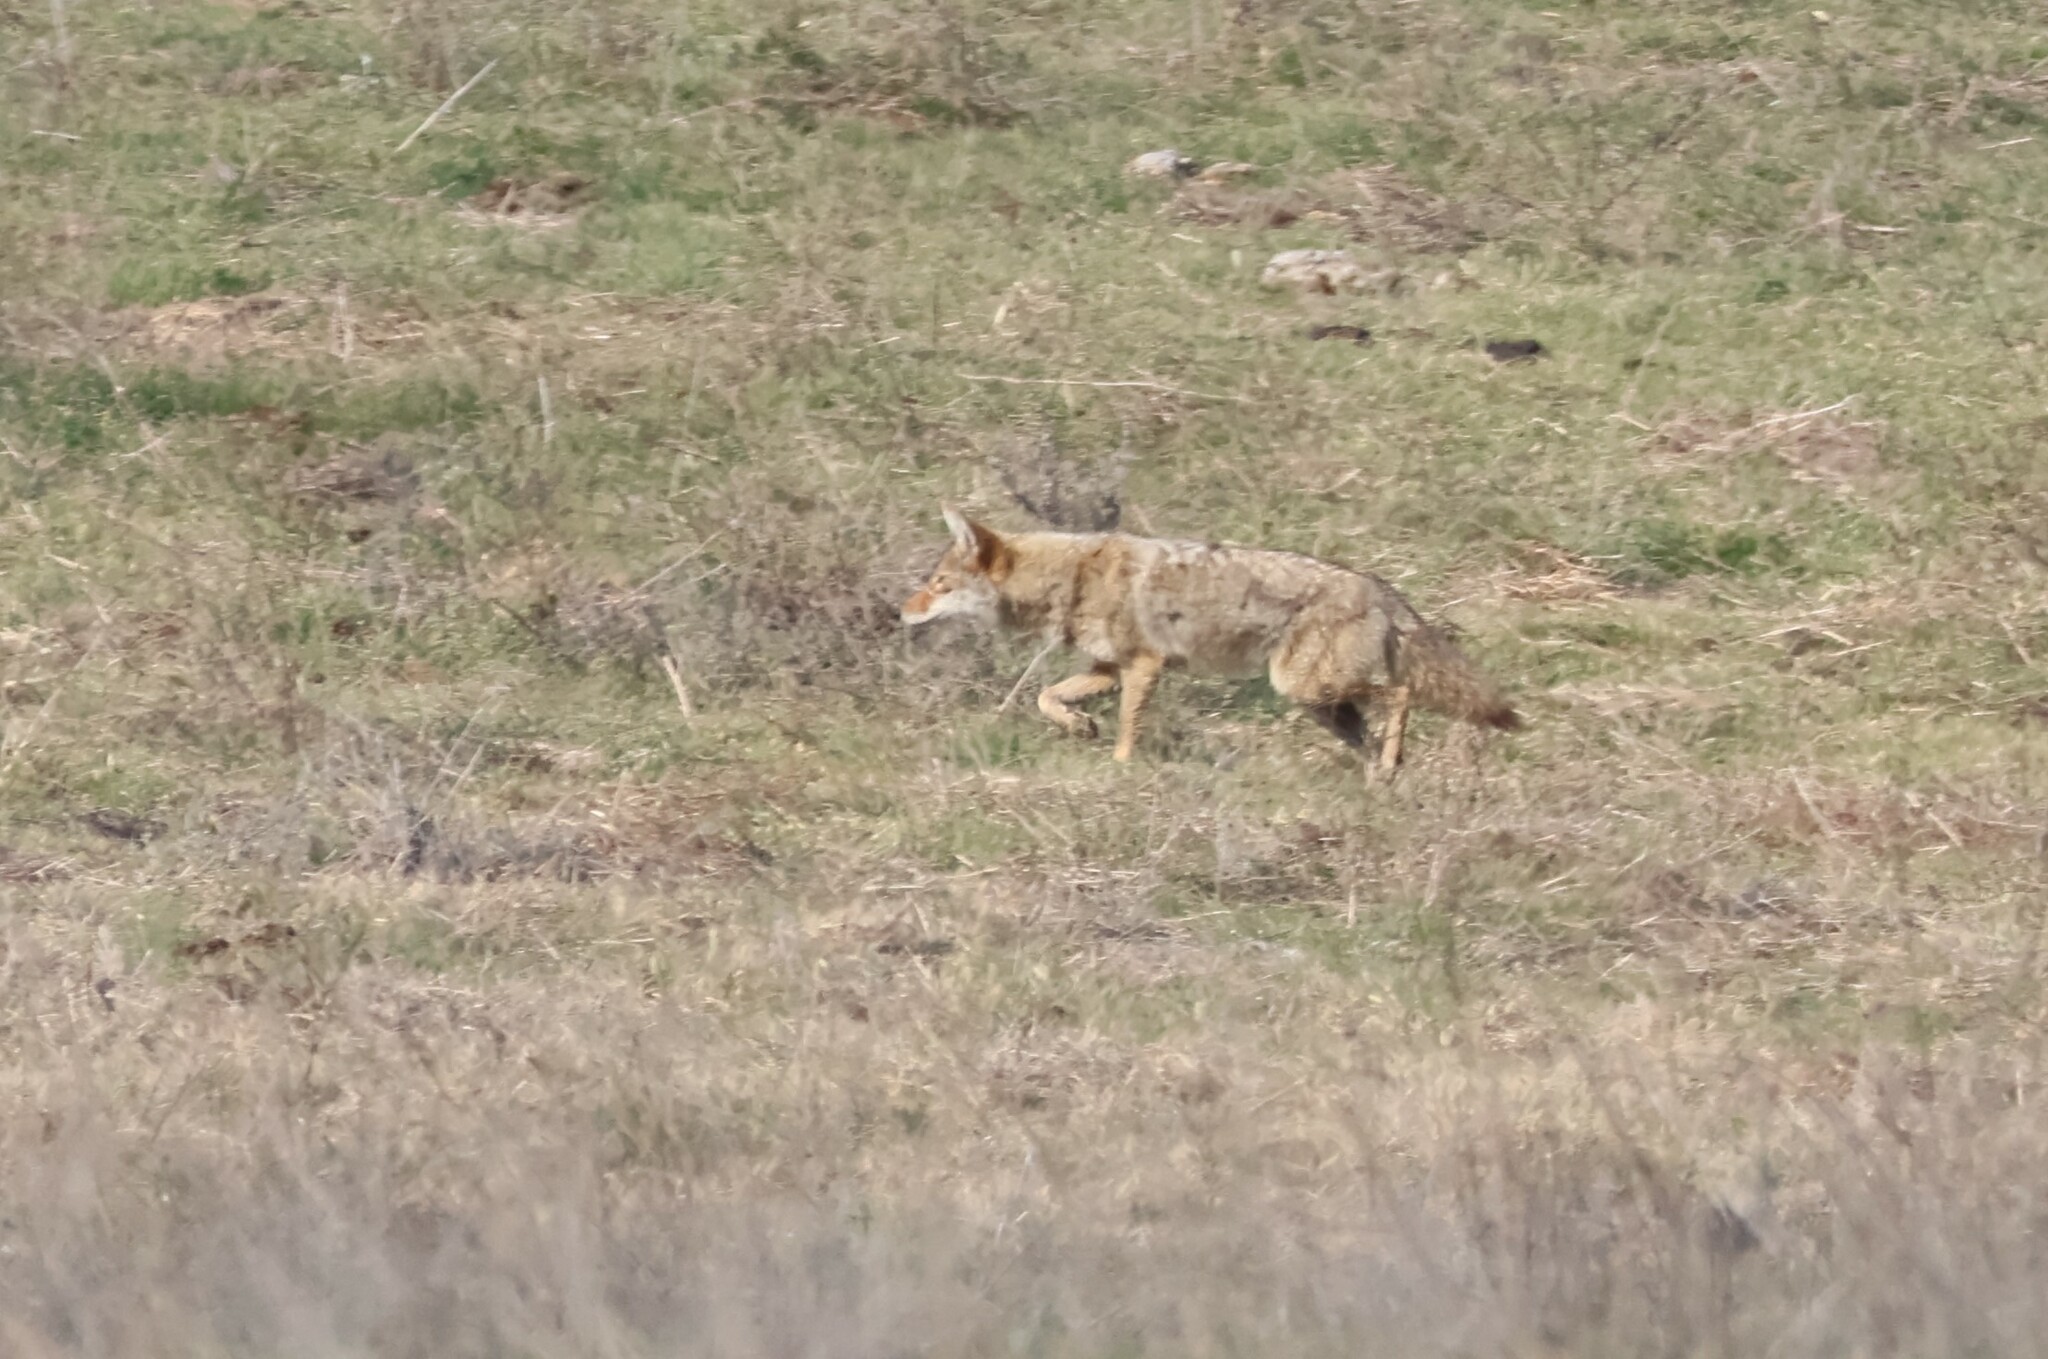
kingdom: Animalia
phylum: Chordata
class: Mammalia
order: Carnivora
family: Canidae
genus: Canis
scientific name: Canis latrans
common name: Coyote
